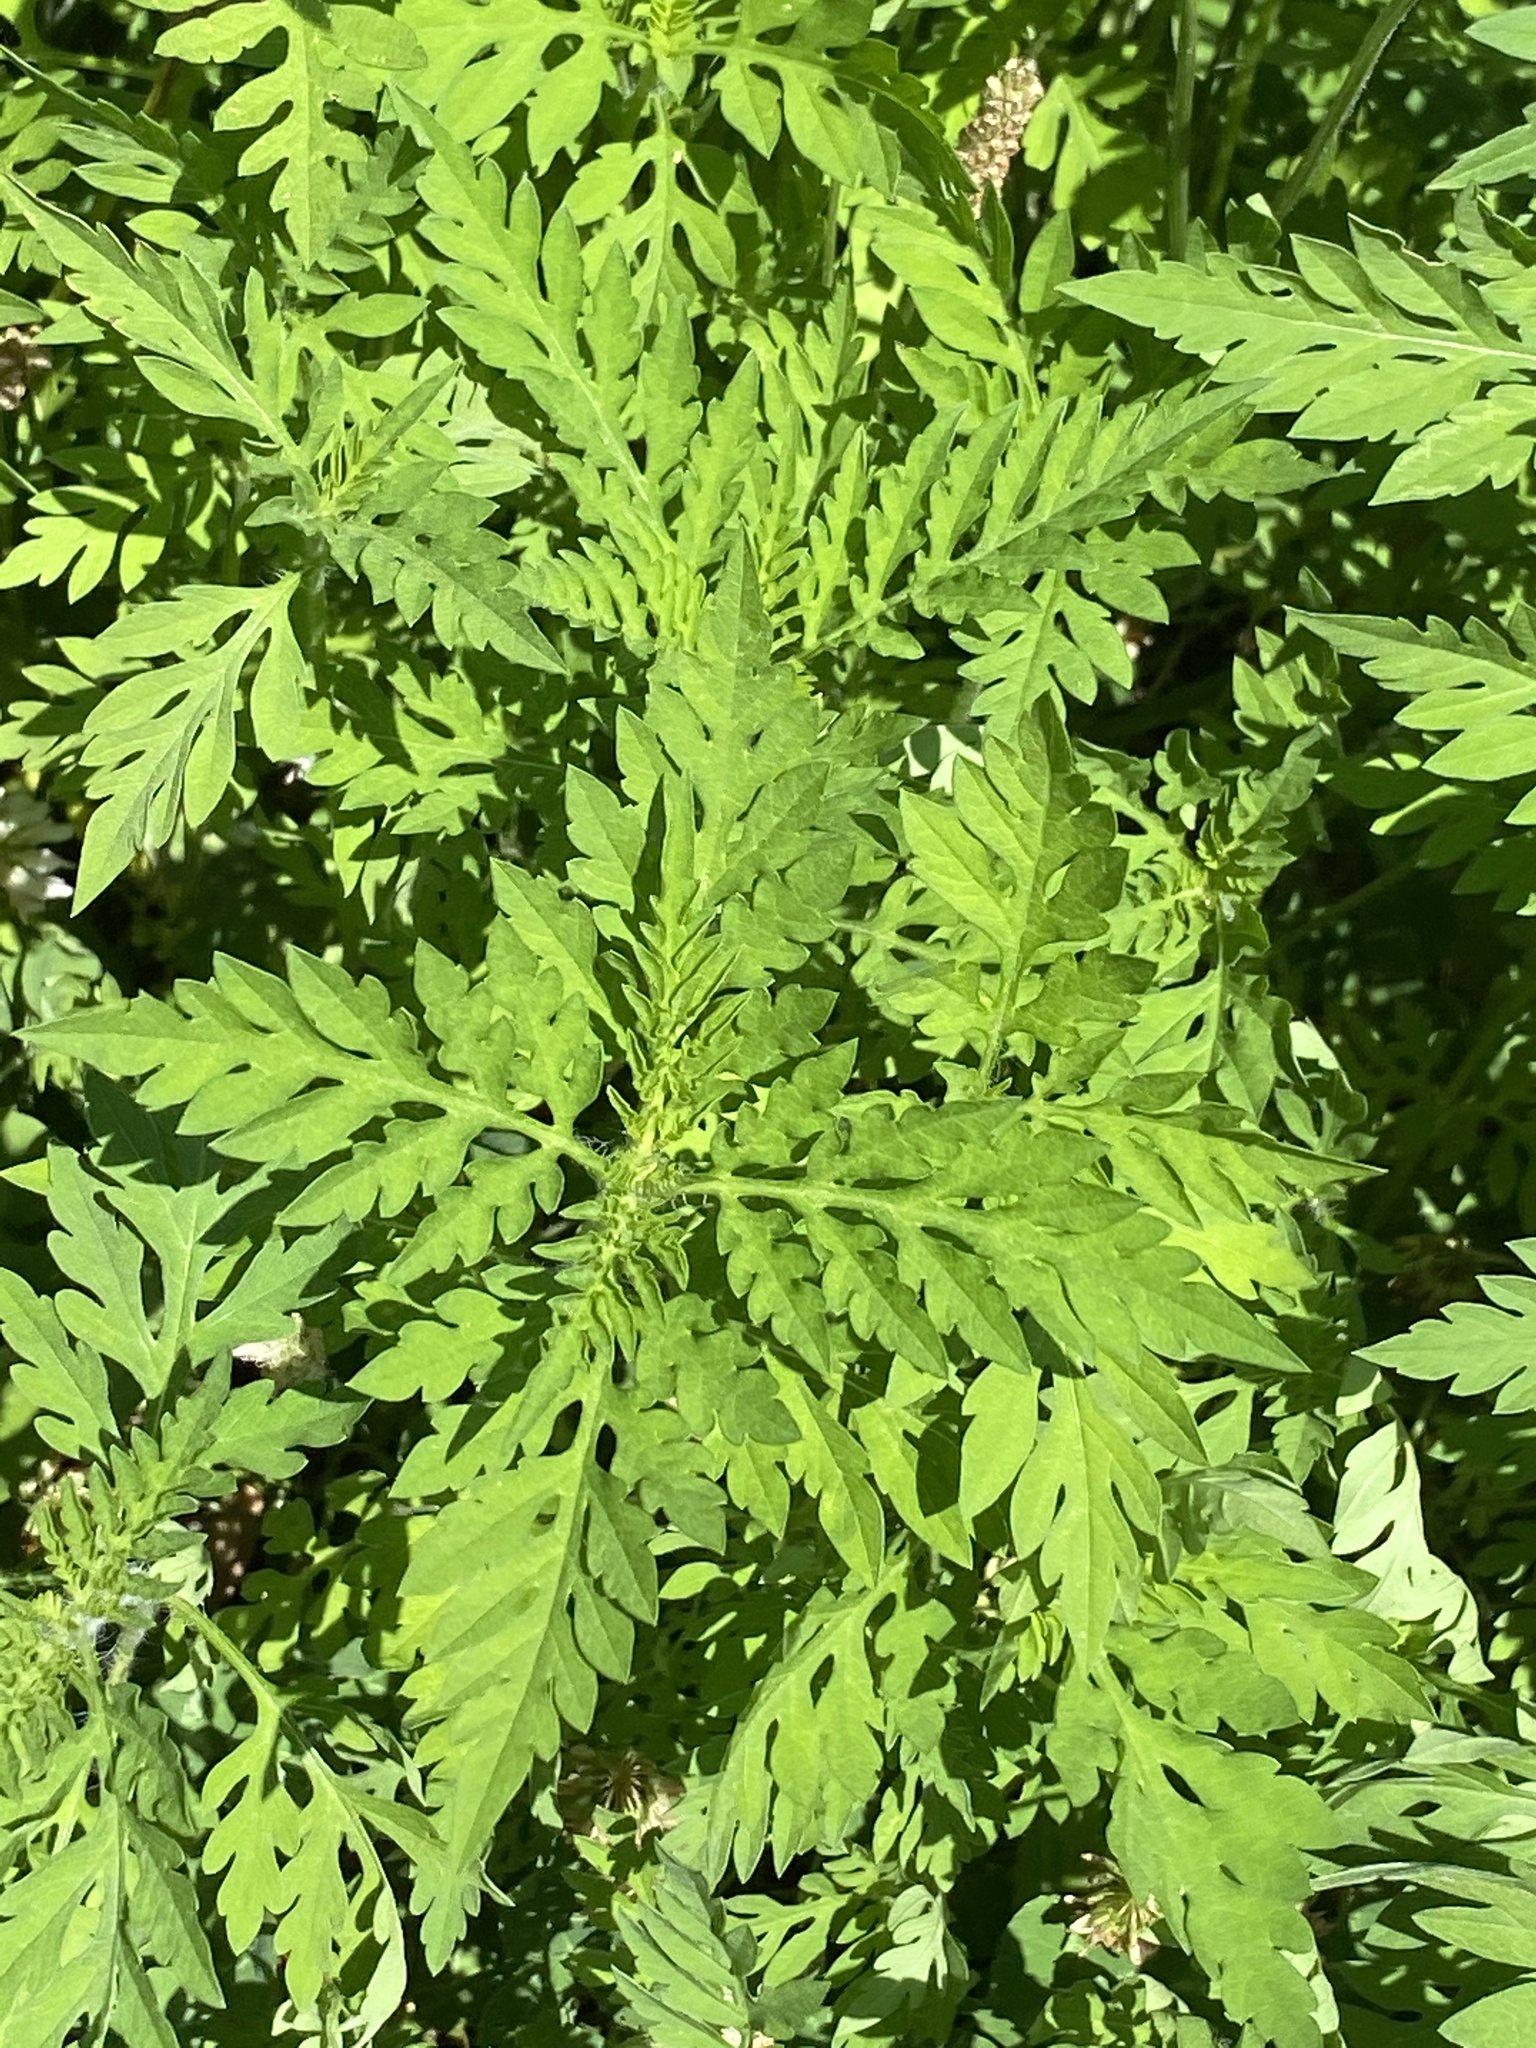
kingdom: Plantae
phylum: Tracheophyta
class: Magnoliopsida
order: Asterales
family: Asteraceae
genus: Ambrosia
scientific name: Ambrosia artemisiifolia
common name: Annual ragweed
